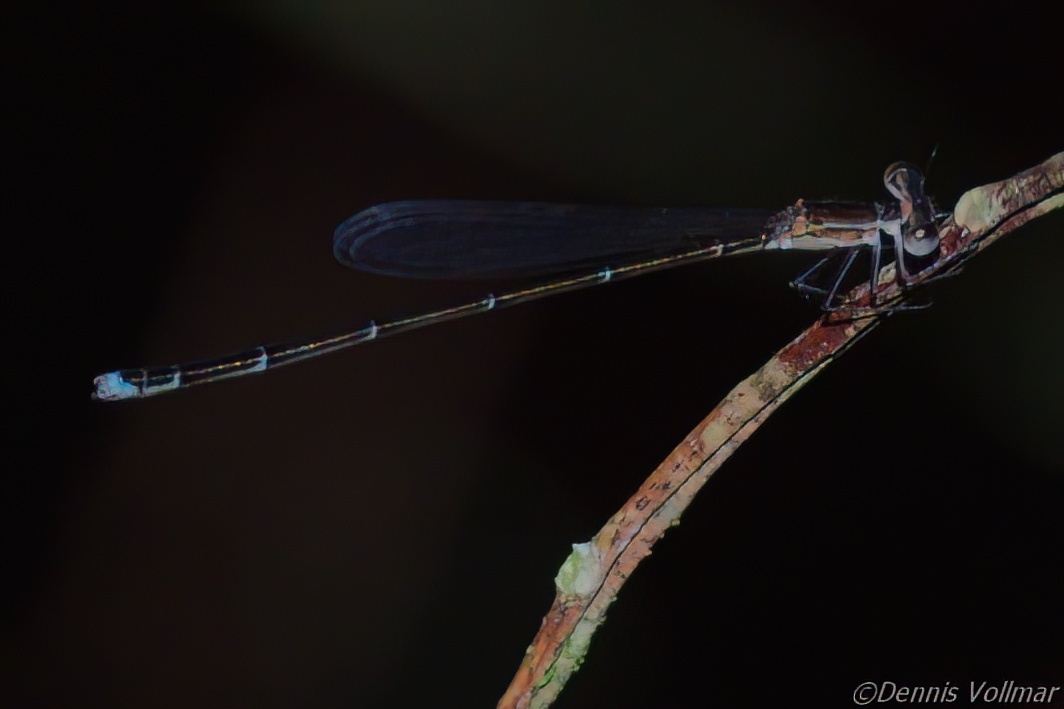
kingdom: Animalia
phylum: Arthropoda
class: Insecta
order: Odonata
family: Coenagrionidae
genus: Nehalennia
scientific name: Nehalennia pallidula
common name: Everglades sprite
